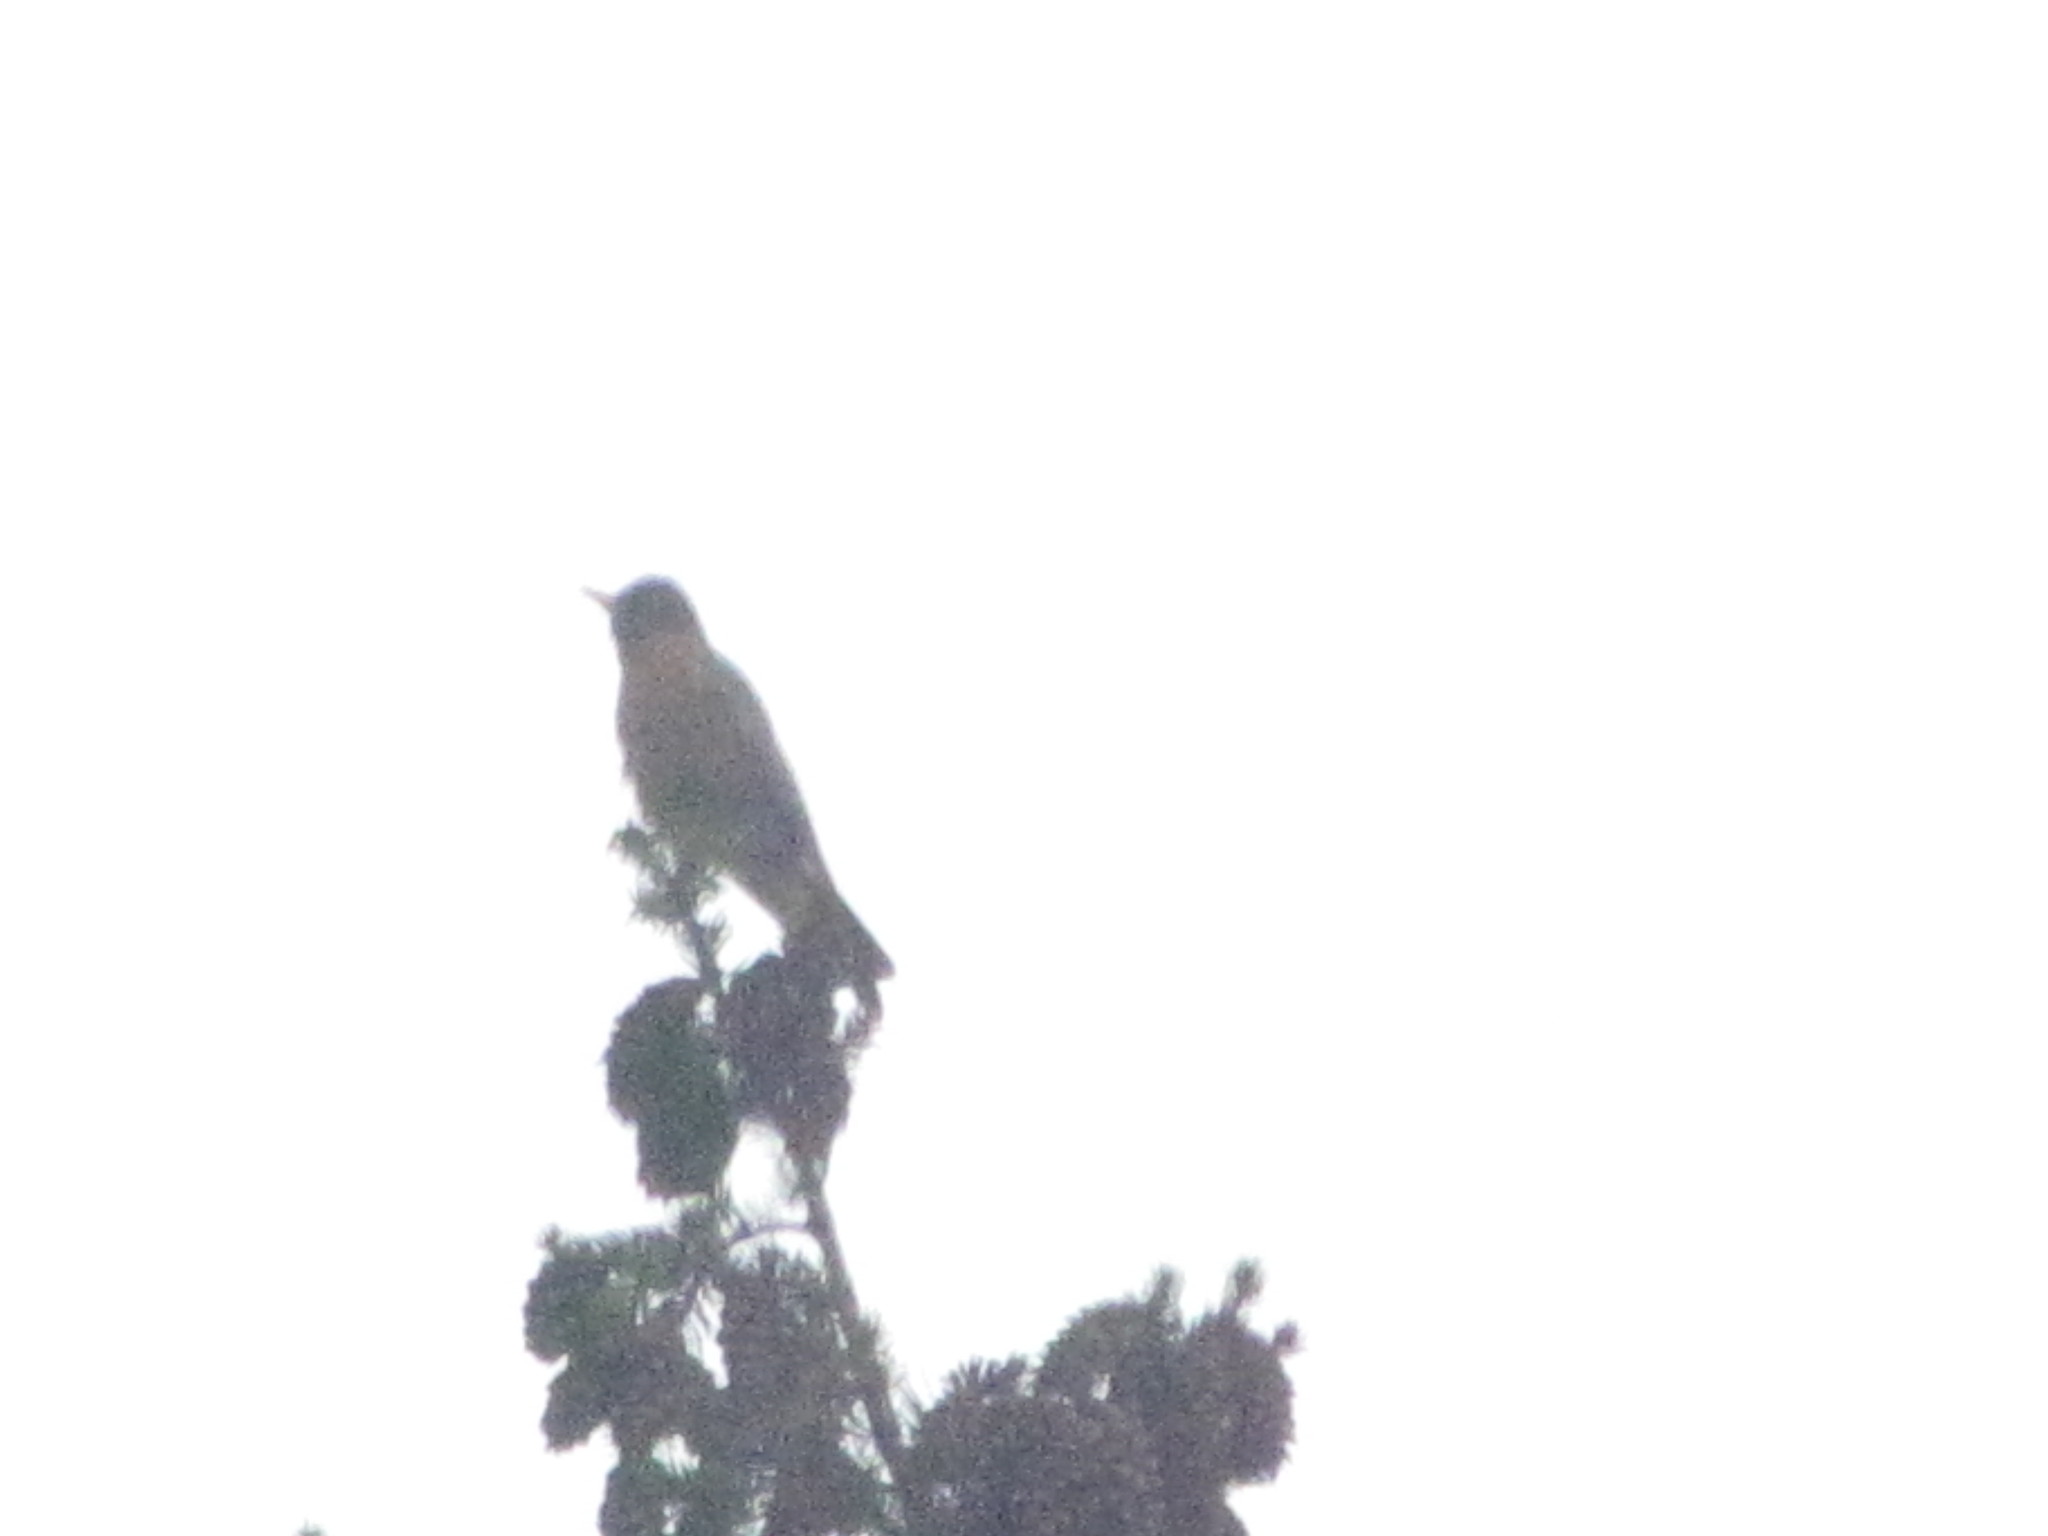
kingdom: Animalia
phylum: Chordata
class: Aves
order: Passeriformes
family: Turdidae
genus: Turdus
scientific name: Turdus migratorius
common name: American robin
